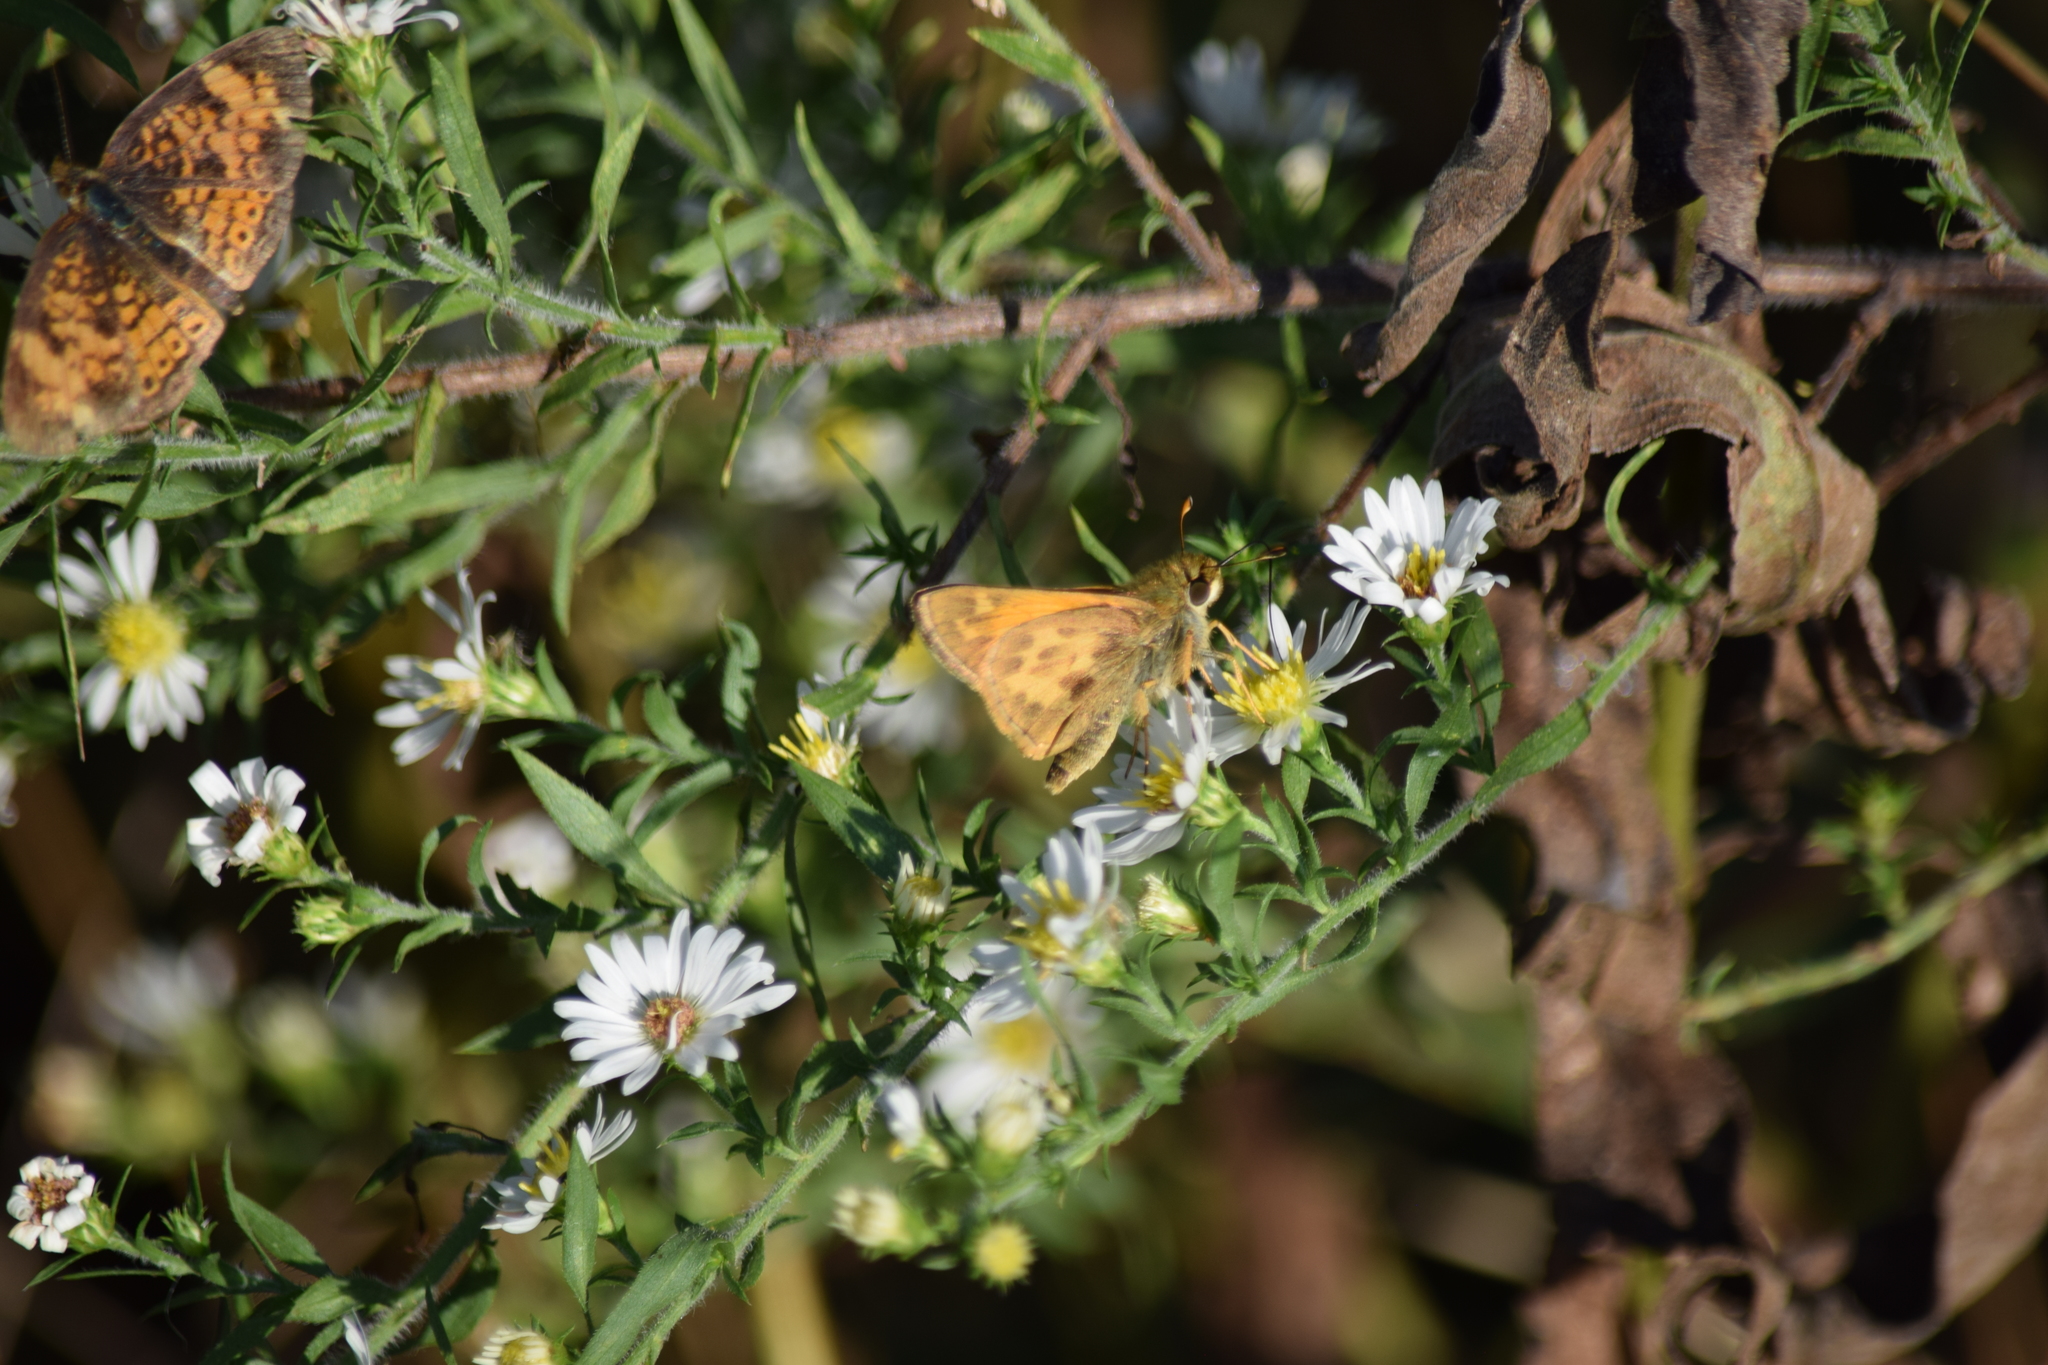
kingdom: Animalia
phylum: Arthropoda
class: Insecta
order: Lepidoptera
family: Hesperiidae
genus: Atalopedes
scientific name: Atalopedes
